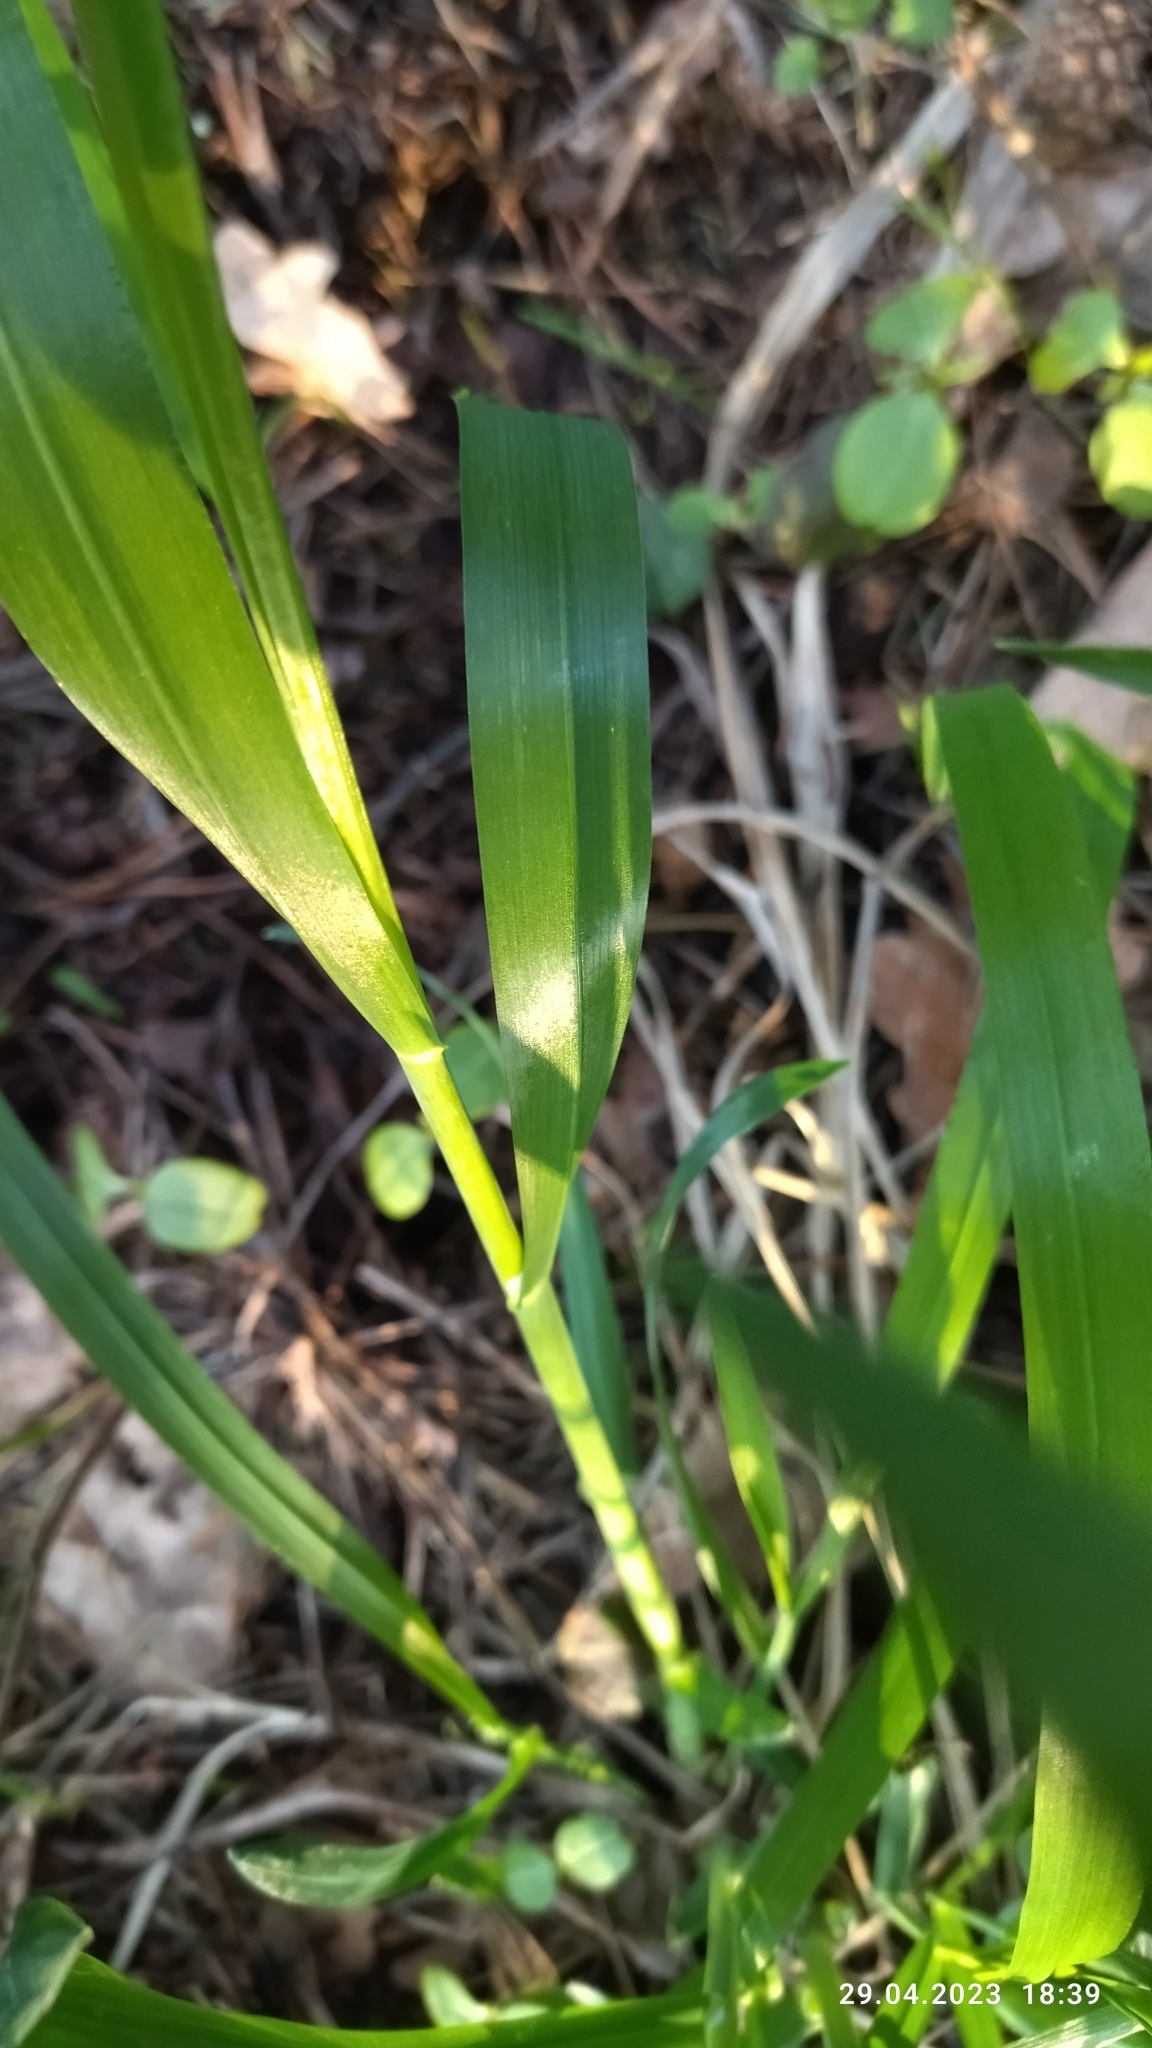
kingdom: Plantae
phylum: Tracheophyta
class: Liliopsida
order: Poales
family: Poaceae
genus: Milium
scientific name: Milium effusum
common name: Wood millet
